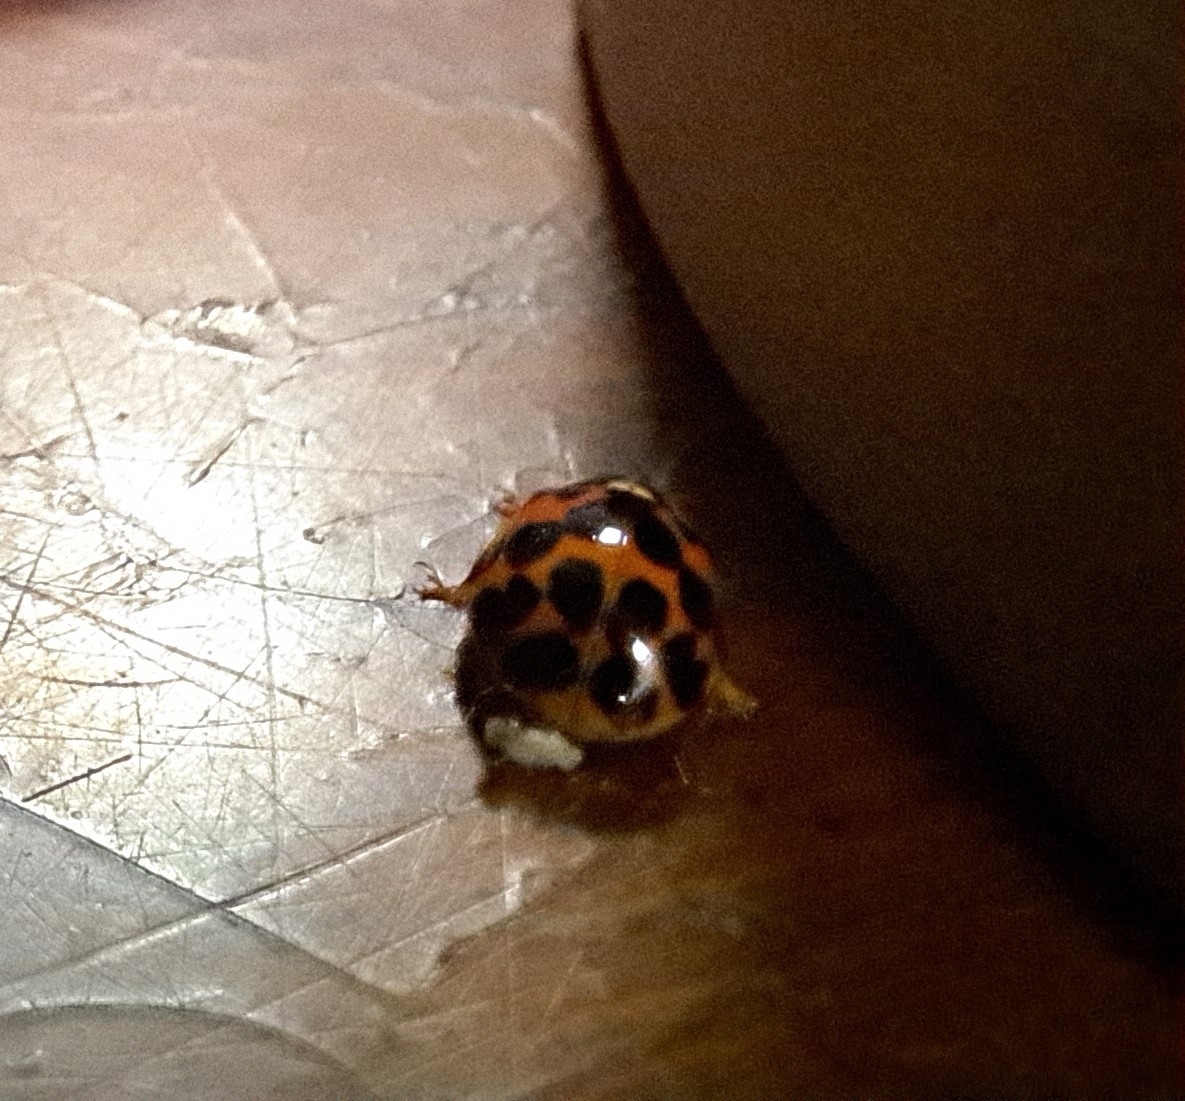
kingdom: Animalia
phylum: Arthropoda
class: Insecta
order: Coleoptera
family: Coccinellidae
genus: Harmonia
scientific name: Harmonia axyridis
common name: Harlequin ladybird
